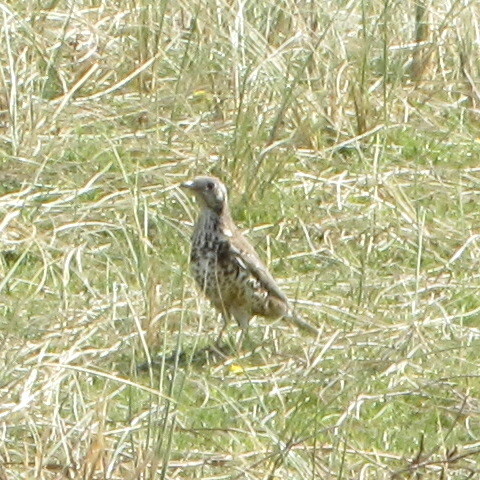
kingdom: Animalia
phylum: Chordata
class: Aves
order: Passeriformes
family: Turdidae
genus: Turdus
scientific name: Turdus viscivorus
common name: Mistle thrush
